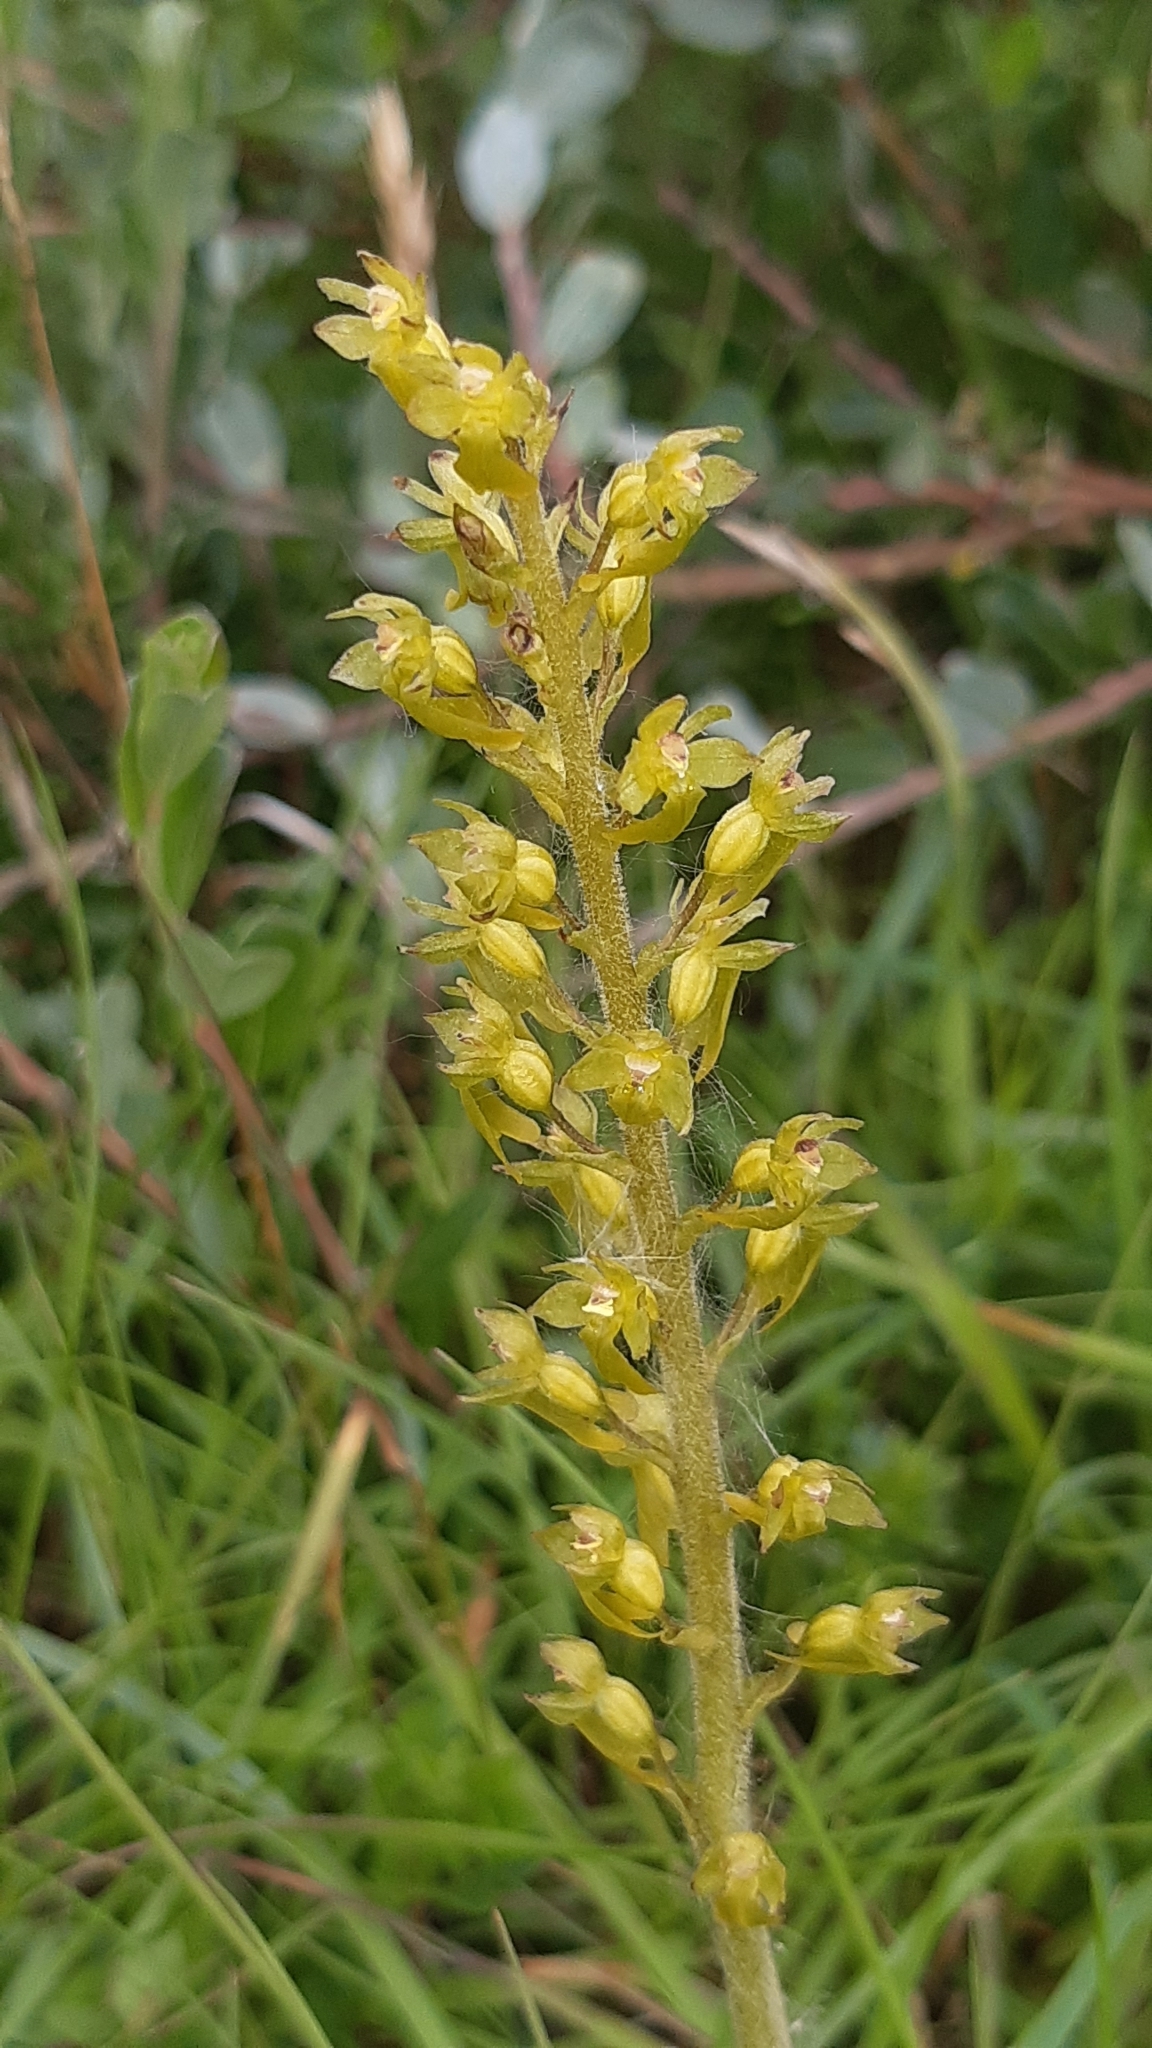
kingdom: Plantae
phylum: Tracheophyta
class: Liliopsida
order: Asparagales
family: Orchidaceae
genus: Neottia
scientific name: Neottia ovata
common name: Common twayblade
